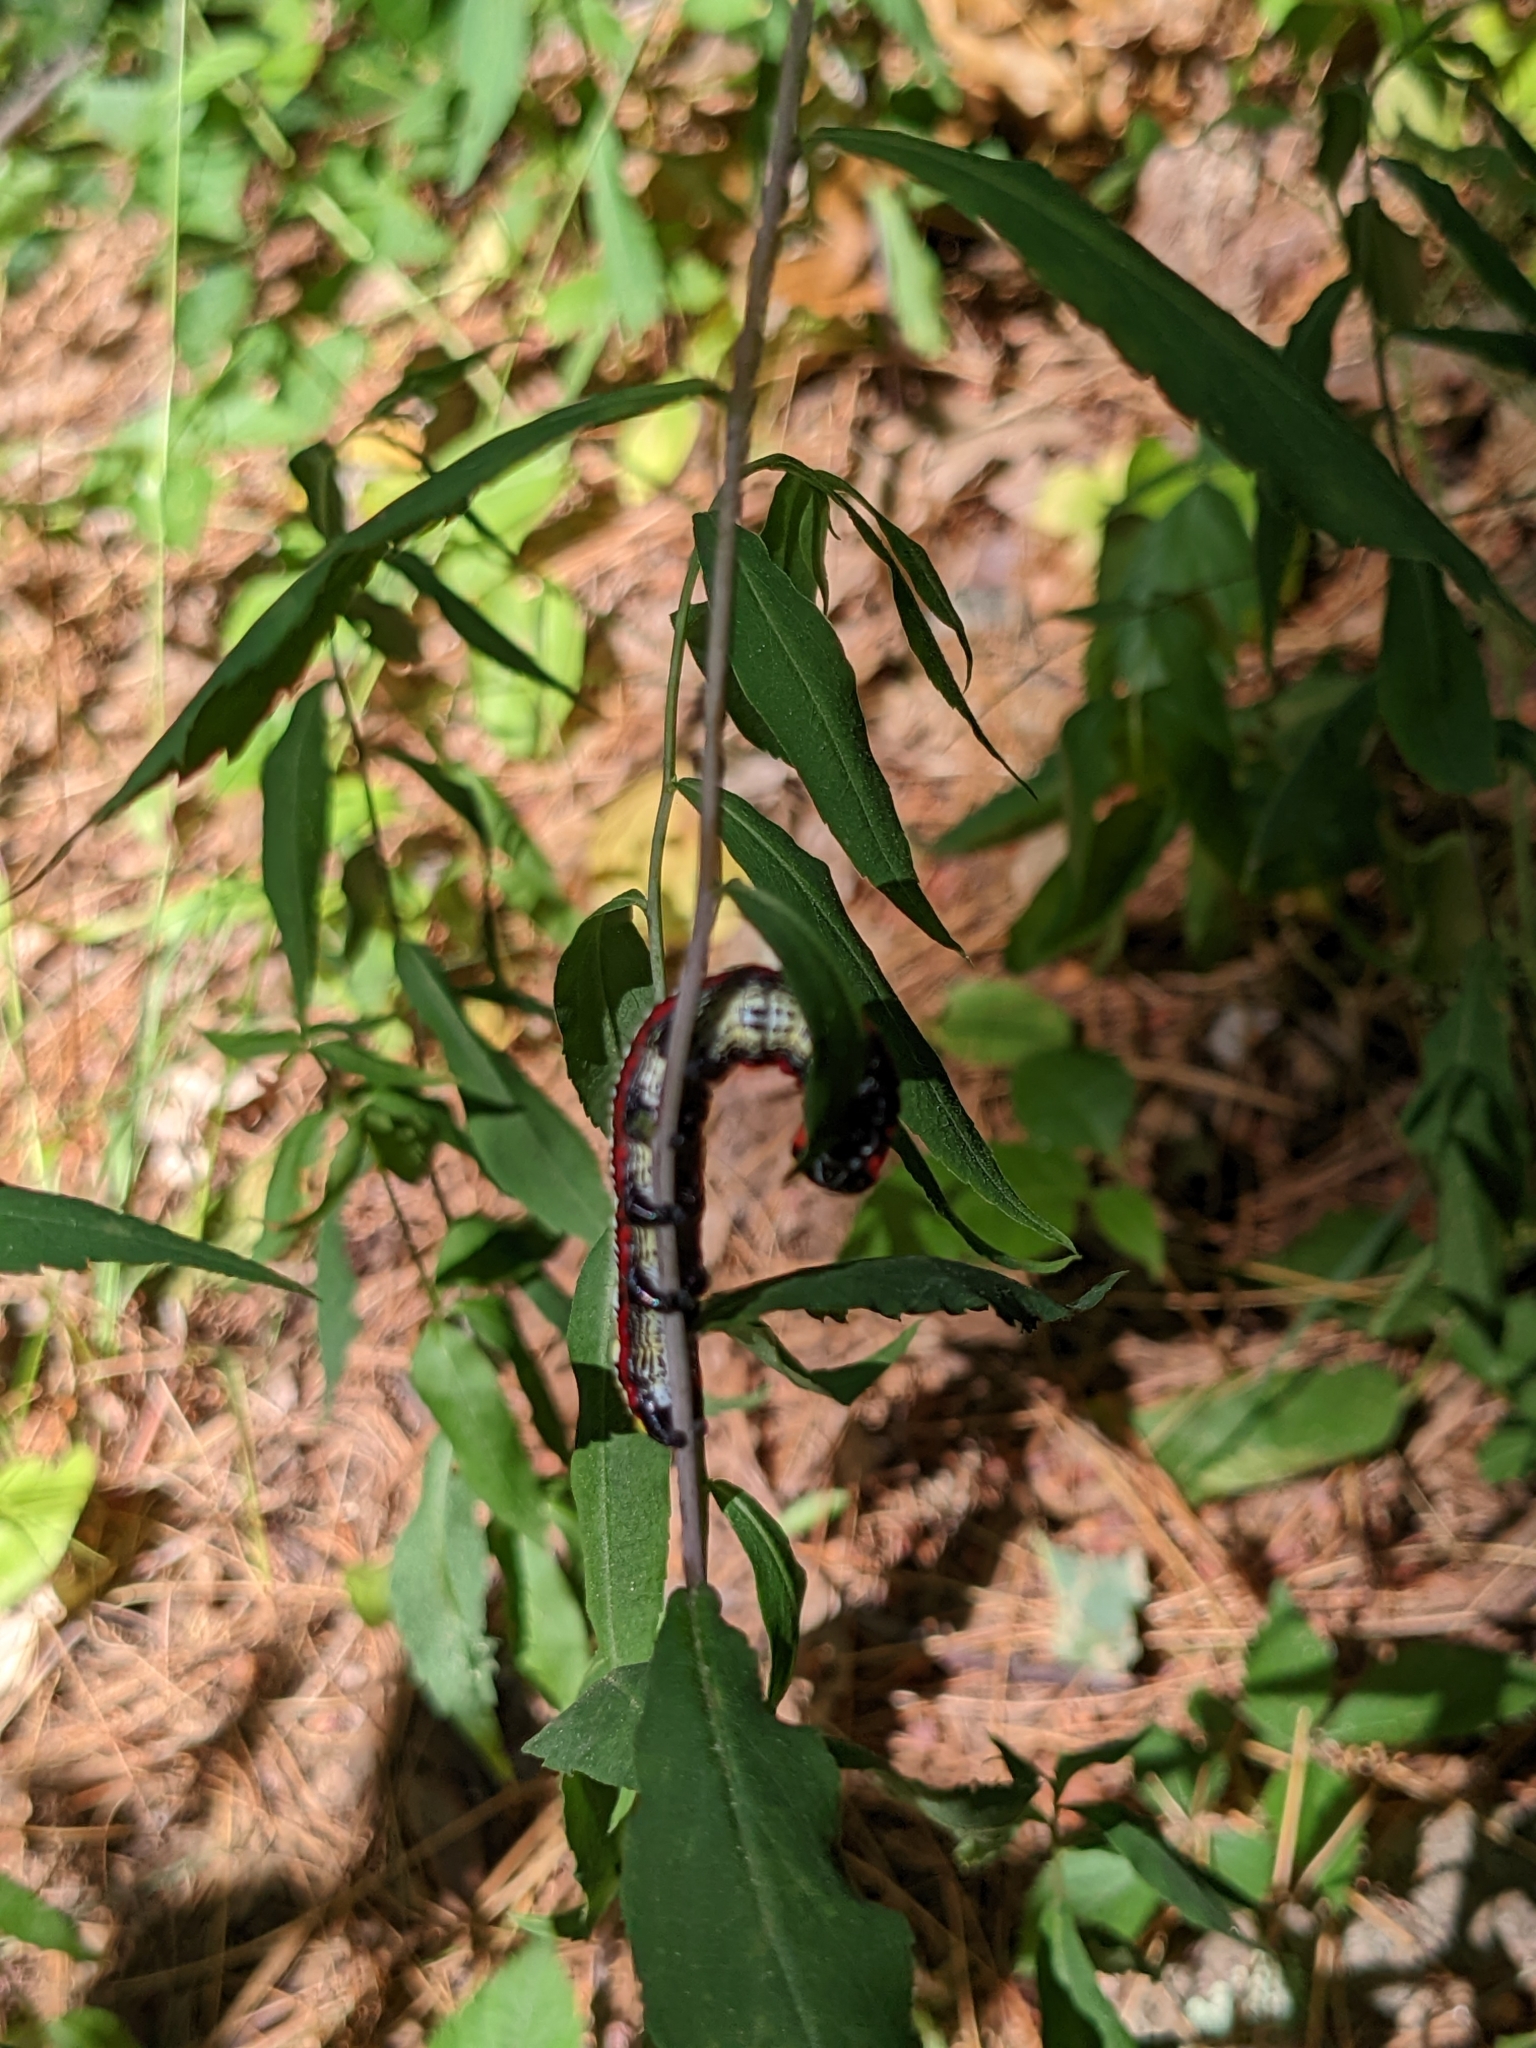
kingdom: Animalia
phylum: Arthropoda
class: Insecta
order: Lepidoptera
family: Noctuidae
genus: Cucullia
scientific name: Cucullia convexipennis
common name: Brown-hooded owlet
